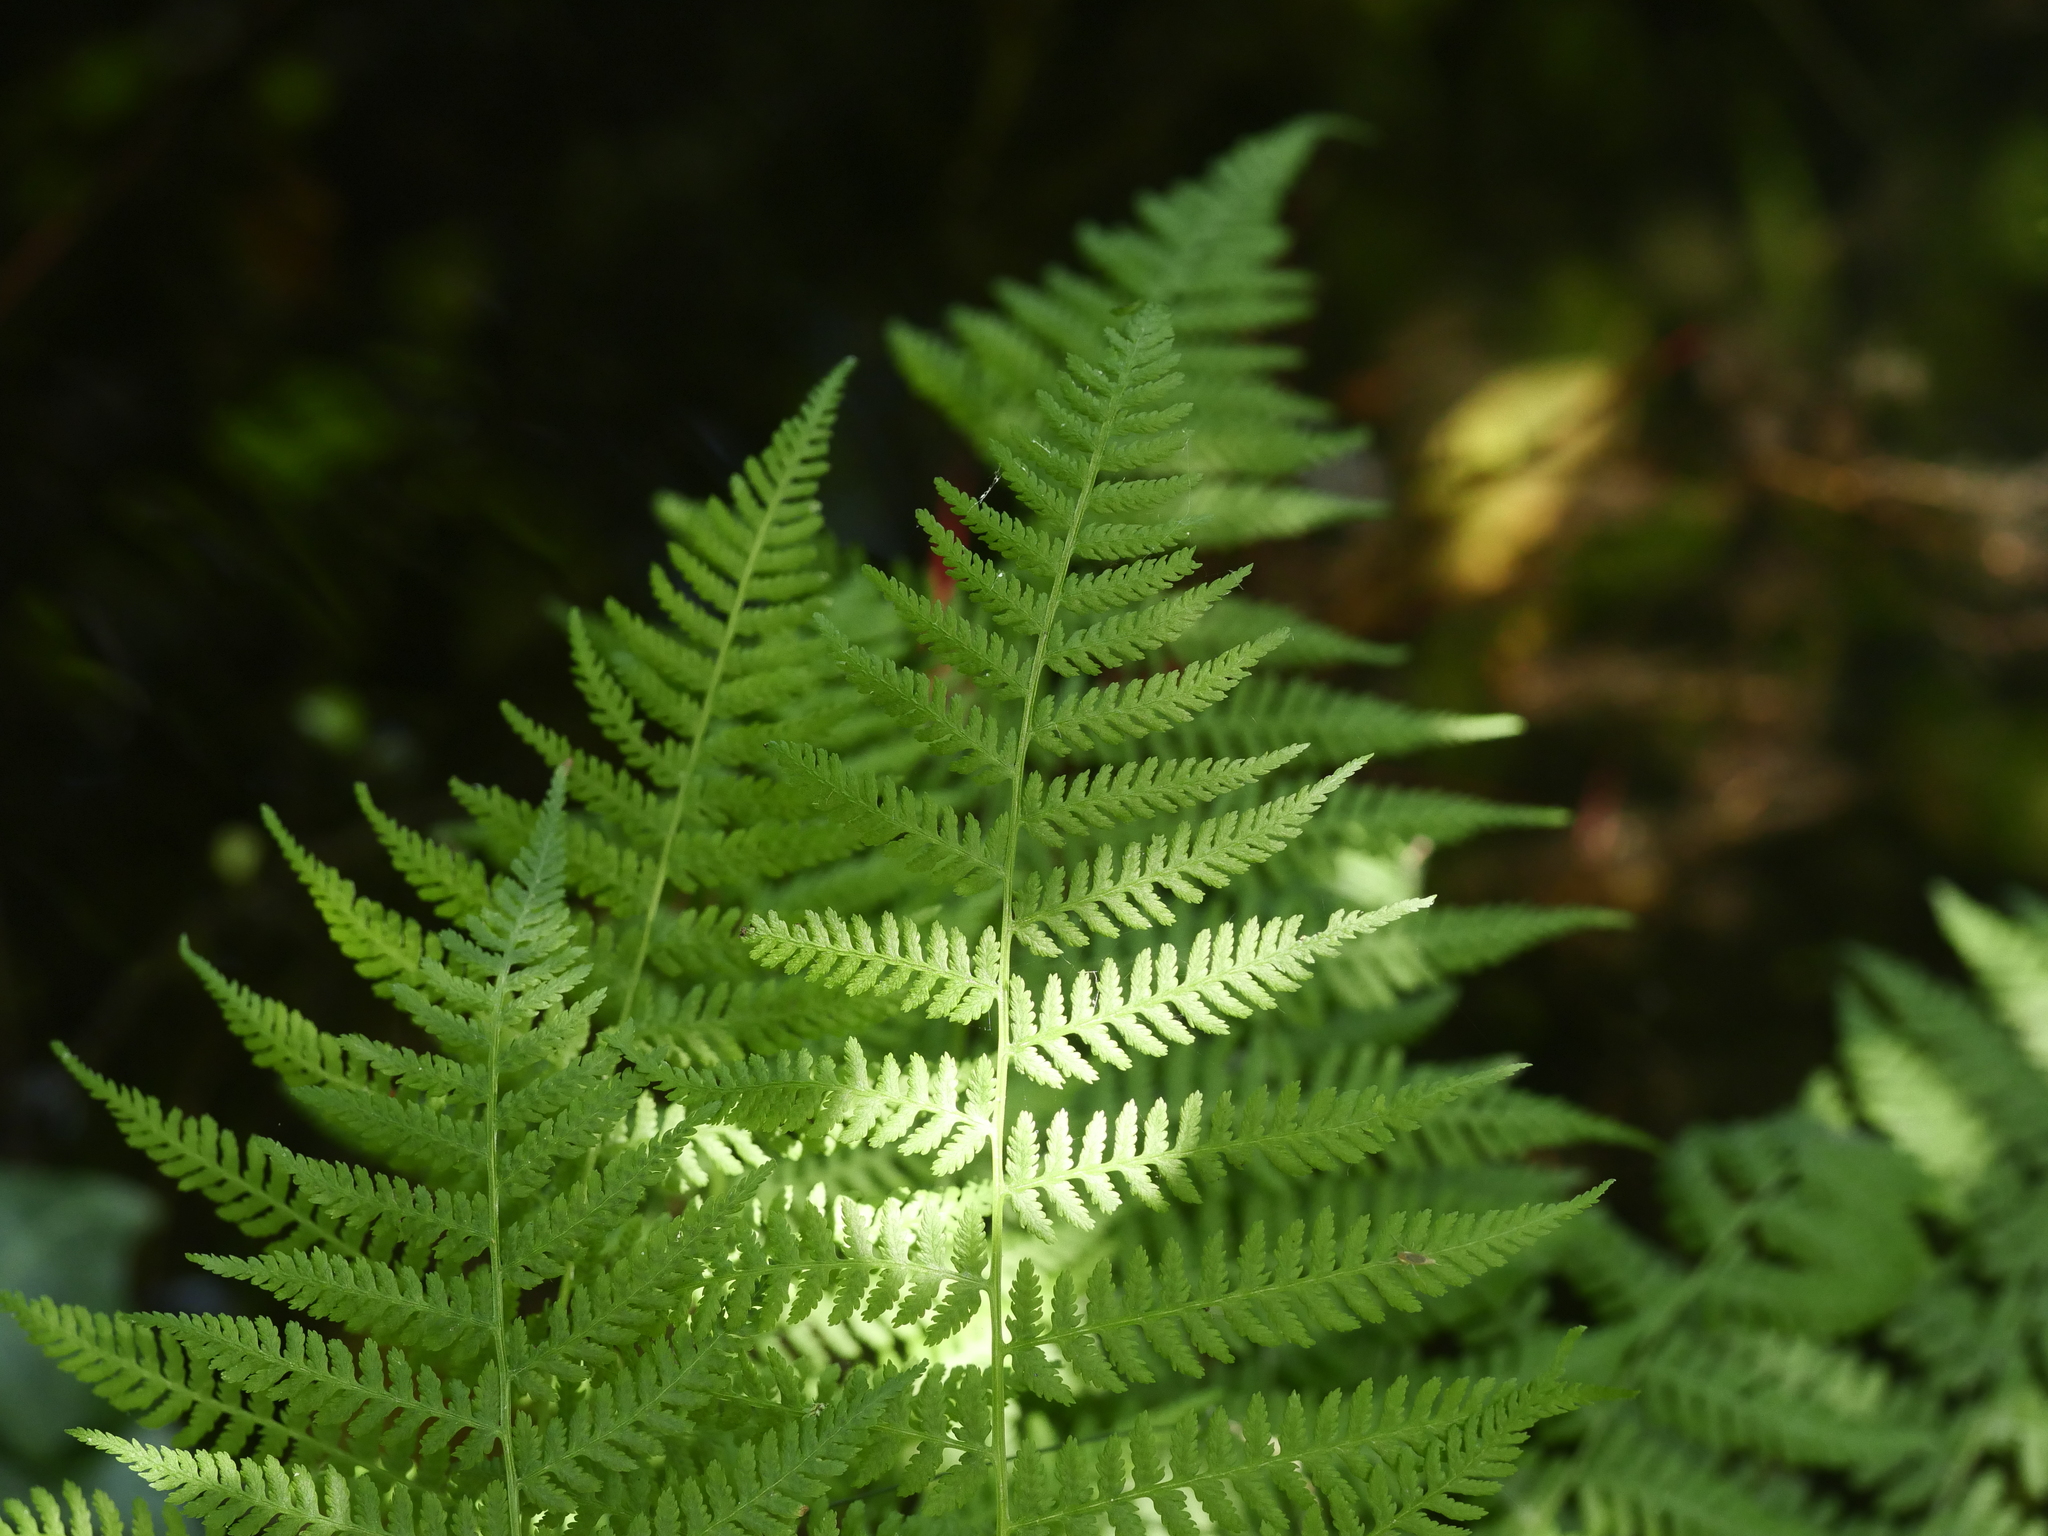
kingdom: Plantae
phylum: Tracheophyta
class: Polypodiopsida
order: Polypodiales
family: Athyriaceae
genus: Athyrium
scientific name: Athyrium filix-femina
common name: Lady fern
